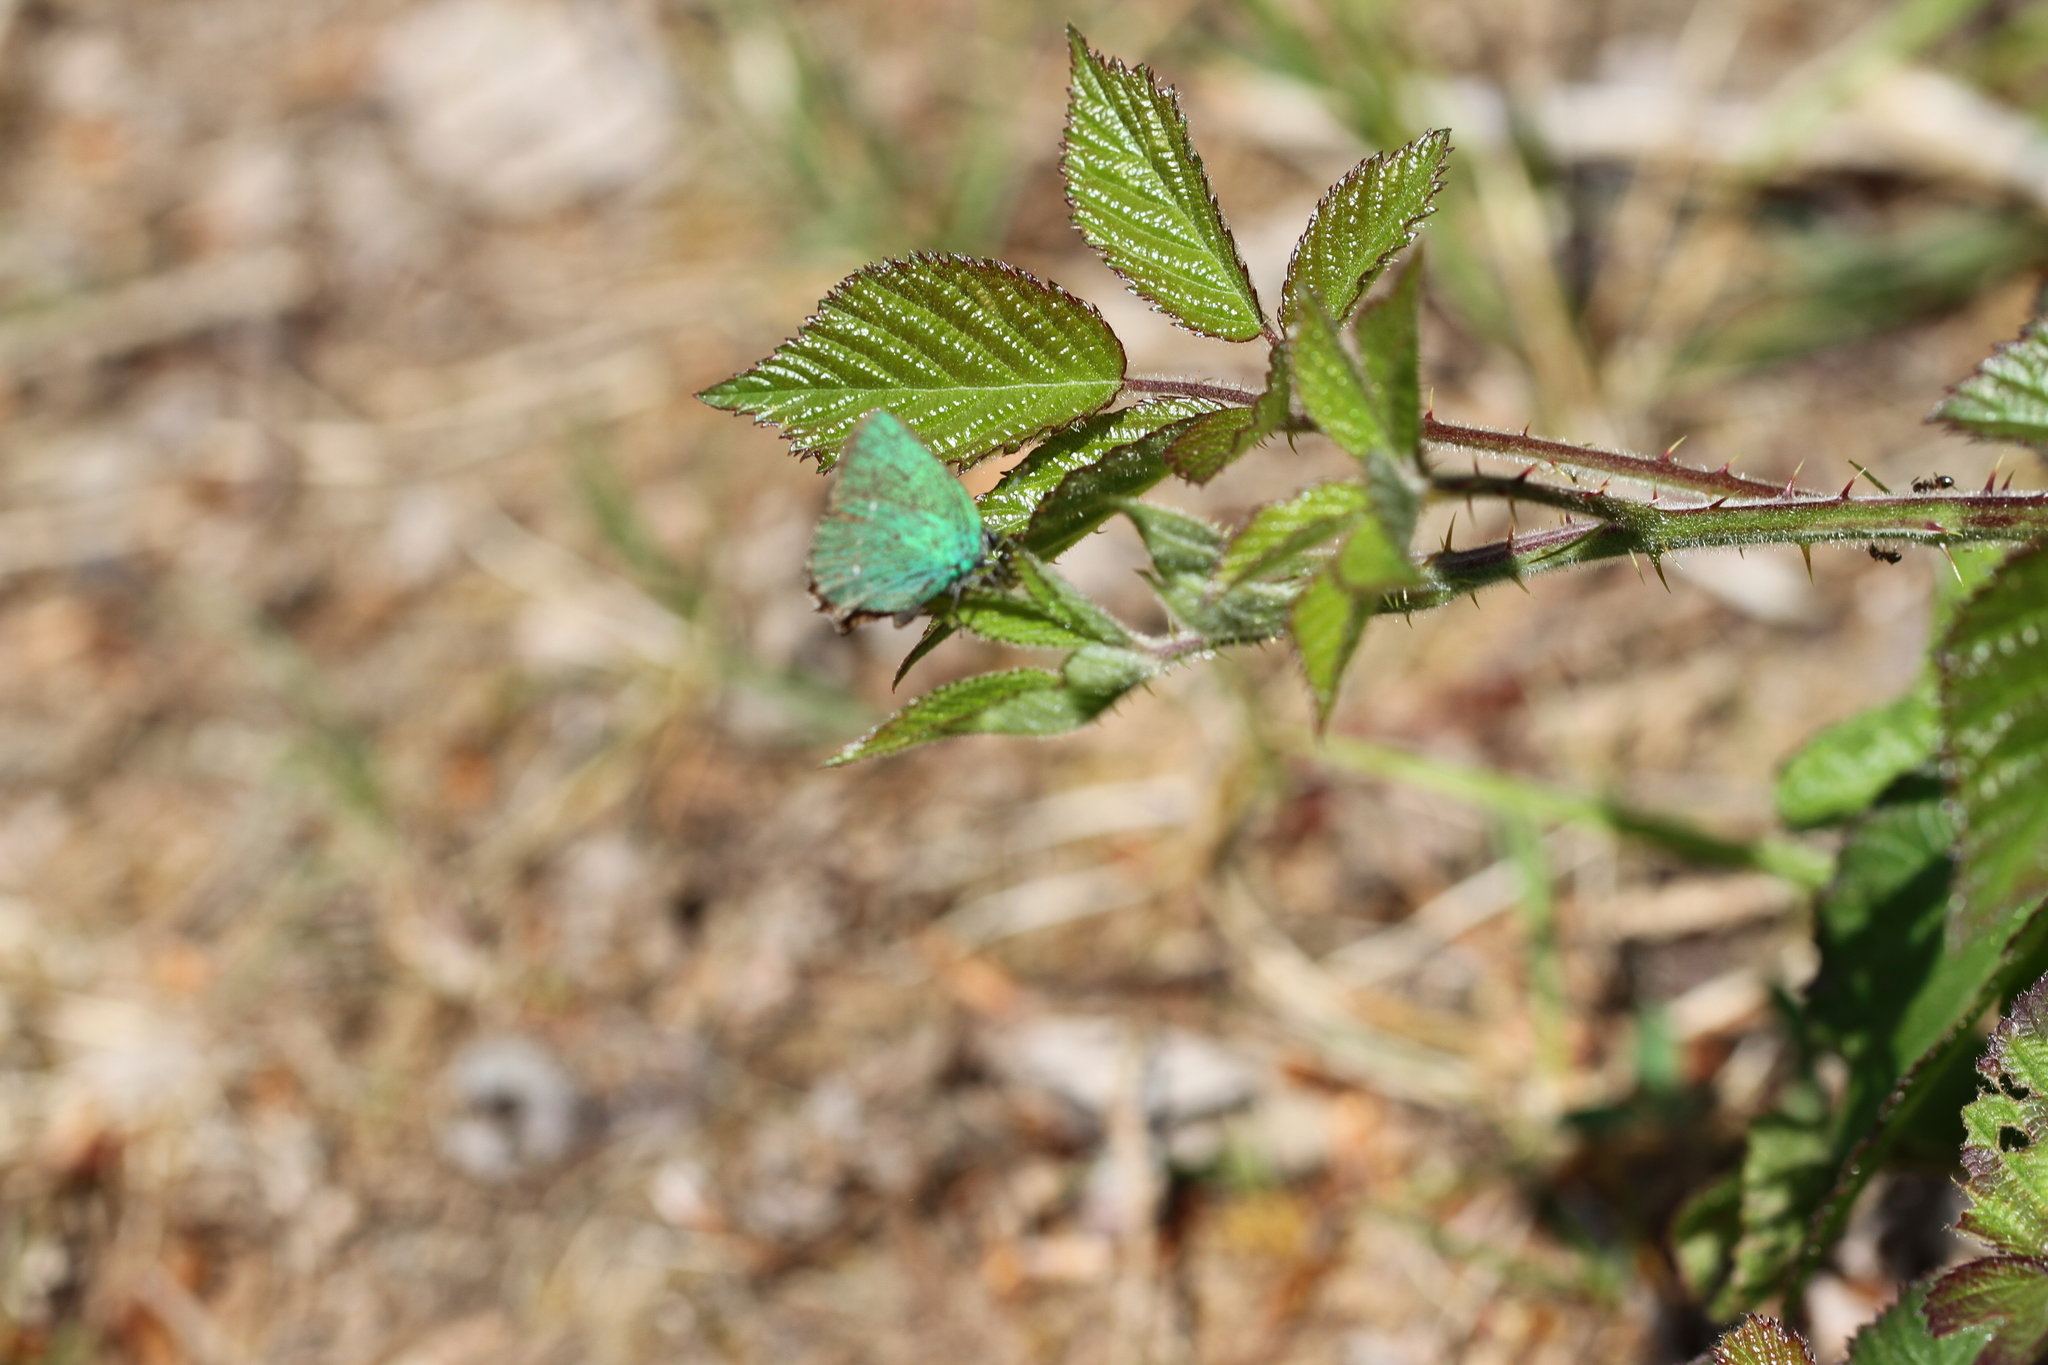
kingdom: Animalia
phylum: Arthropoda
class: Insecta
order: Lepidoptera
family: Lycaenidae
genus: Callophrys
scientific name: Callophrys rubi
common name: Green hairstreak
